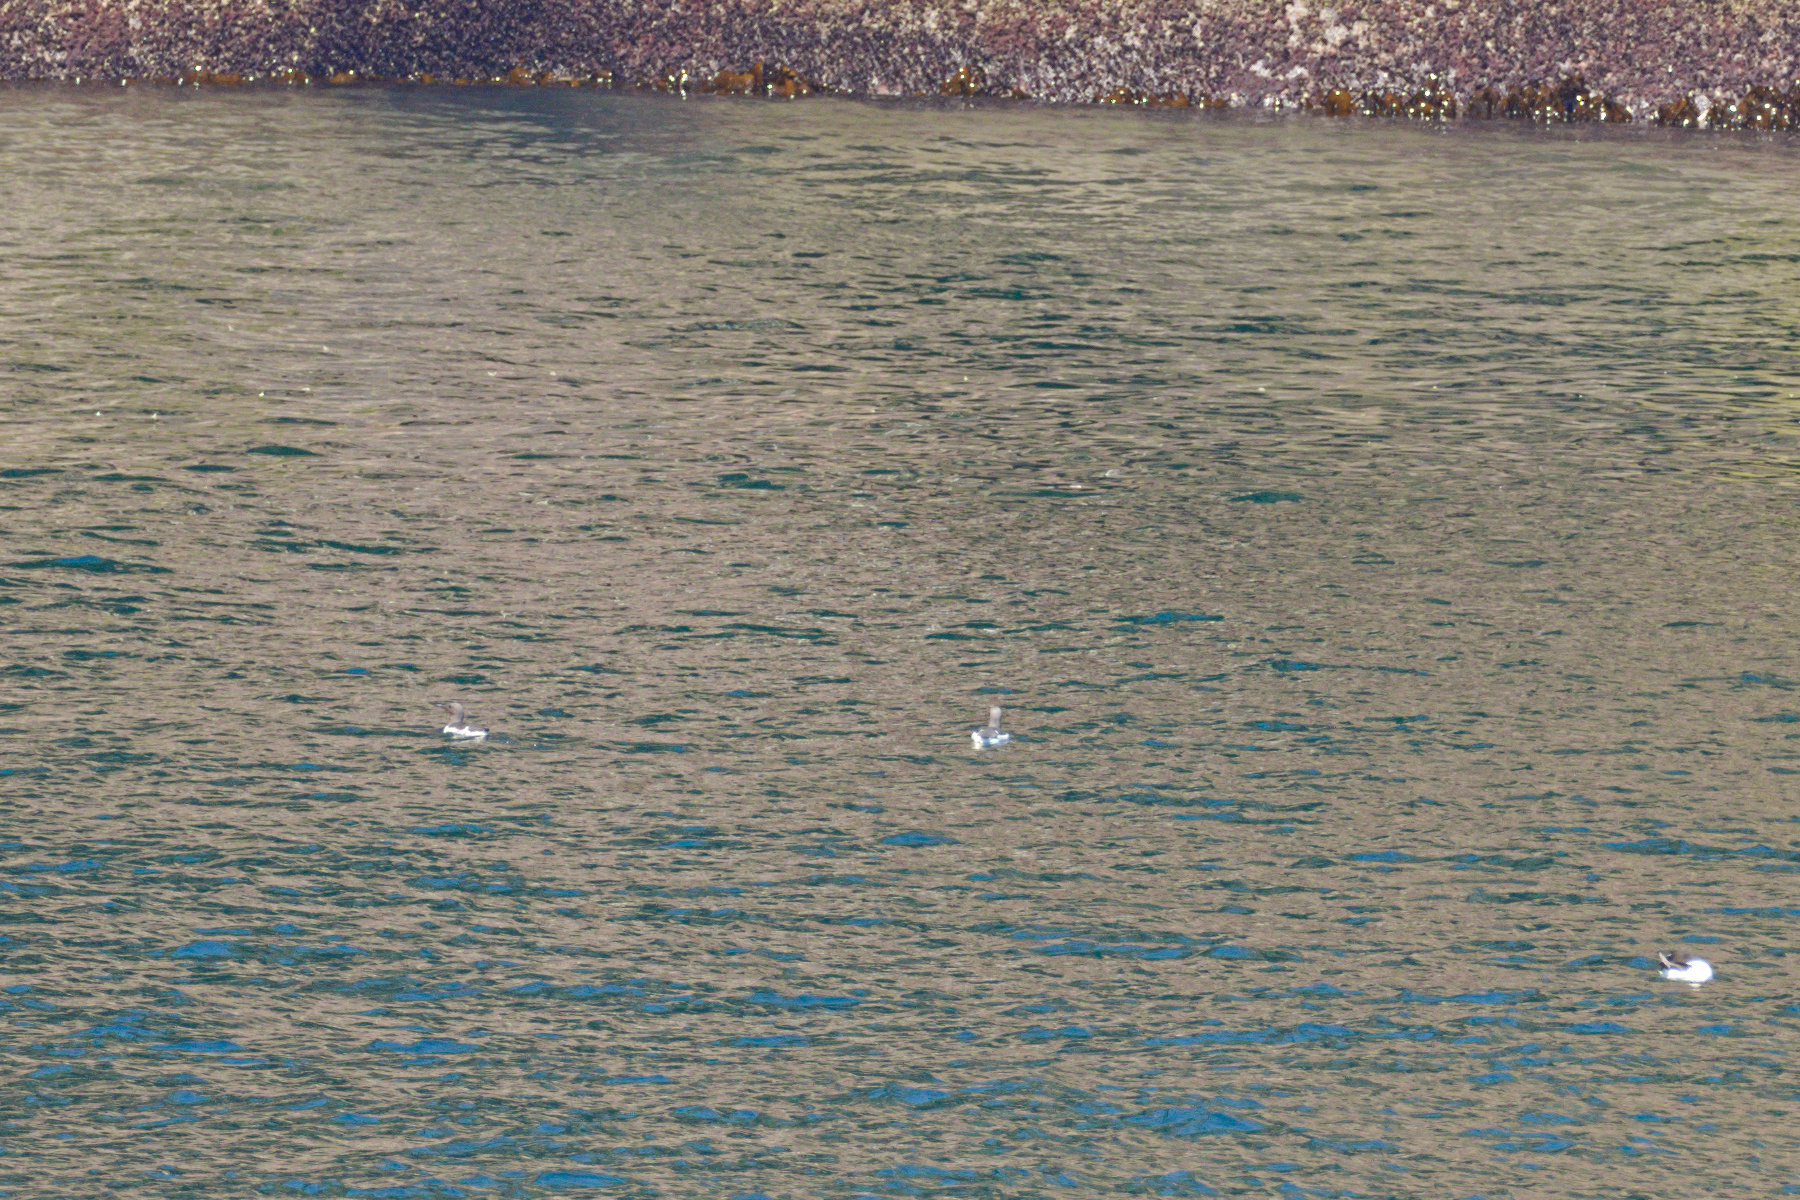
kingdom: Animalia
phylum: Chordata
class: Aves
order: Charadriiformes
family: Alcidae
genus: Uria
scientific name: Uria aalge
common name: Common murre
